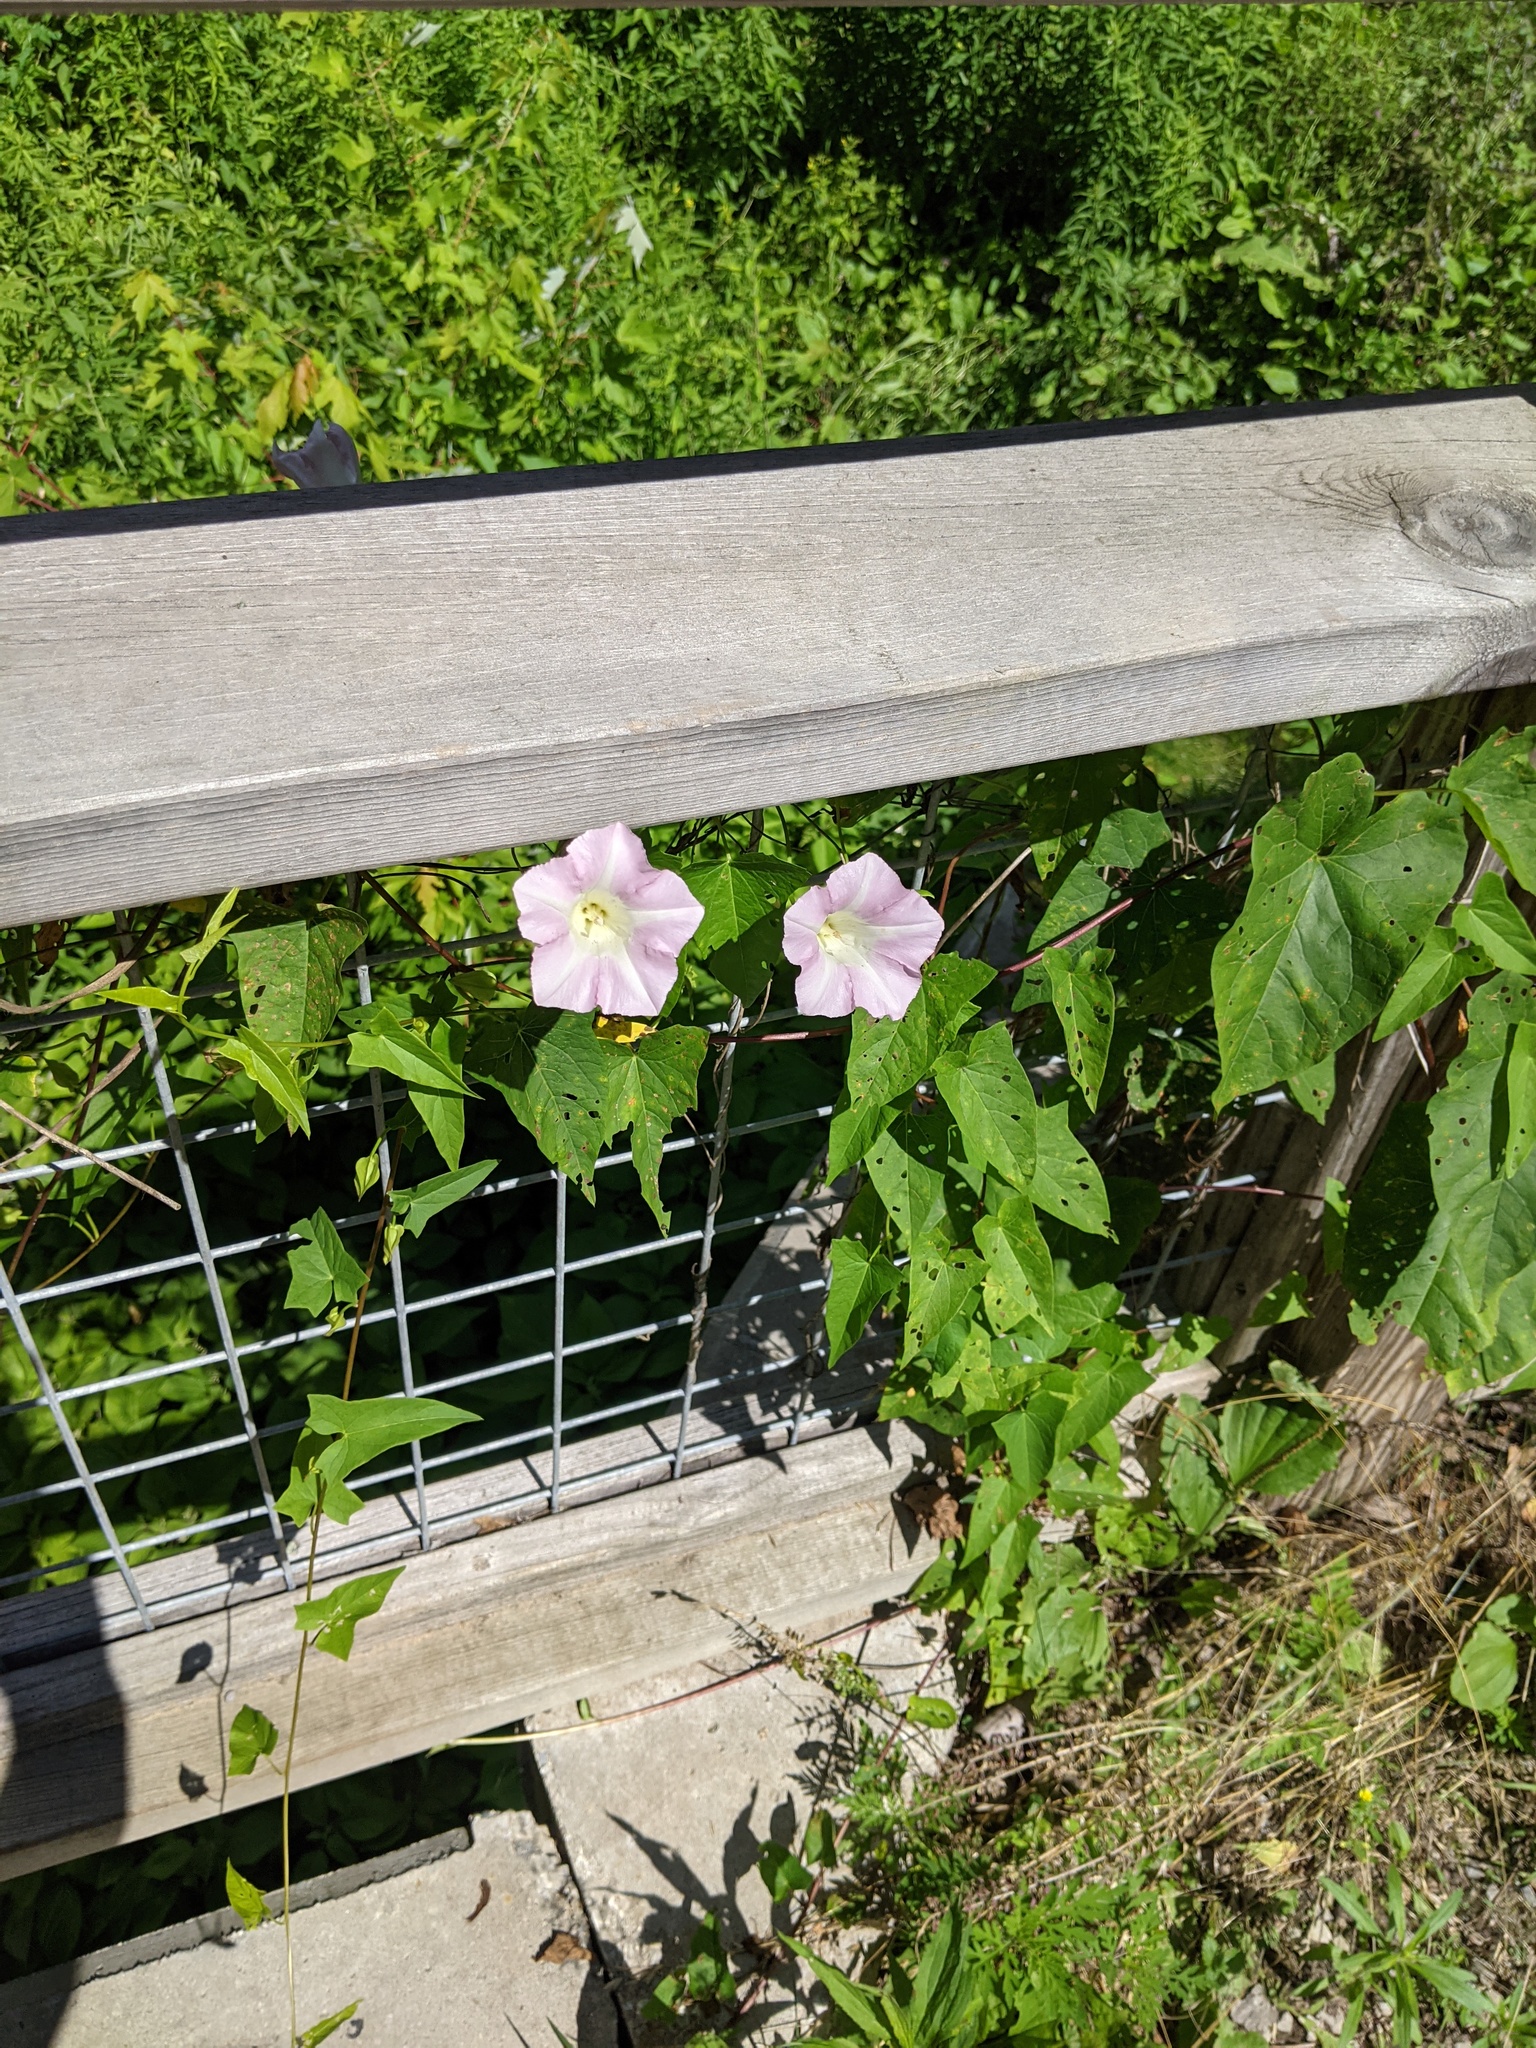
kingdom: Plantae
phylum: Tracheophyta
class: Magnoliopsida
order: Solanales
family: Convolvulaceae
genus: Calystegia
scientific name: Calystegia sepium
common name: Hedge bindweed
